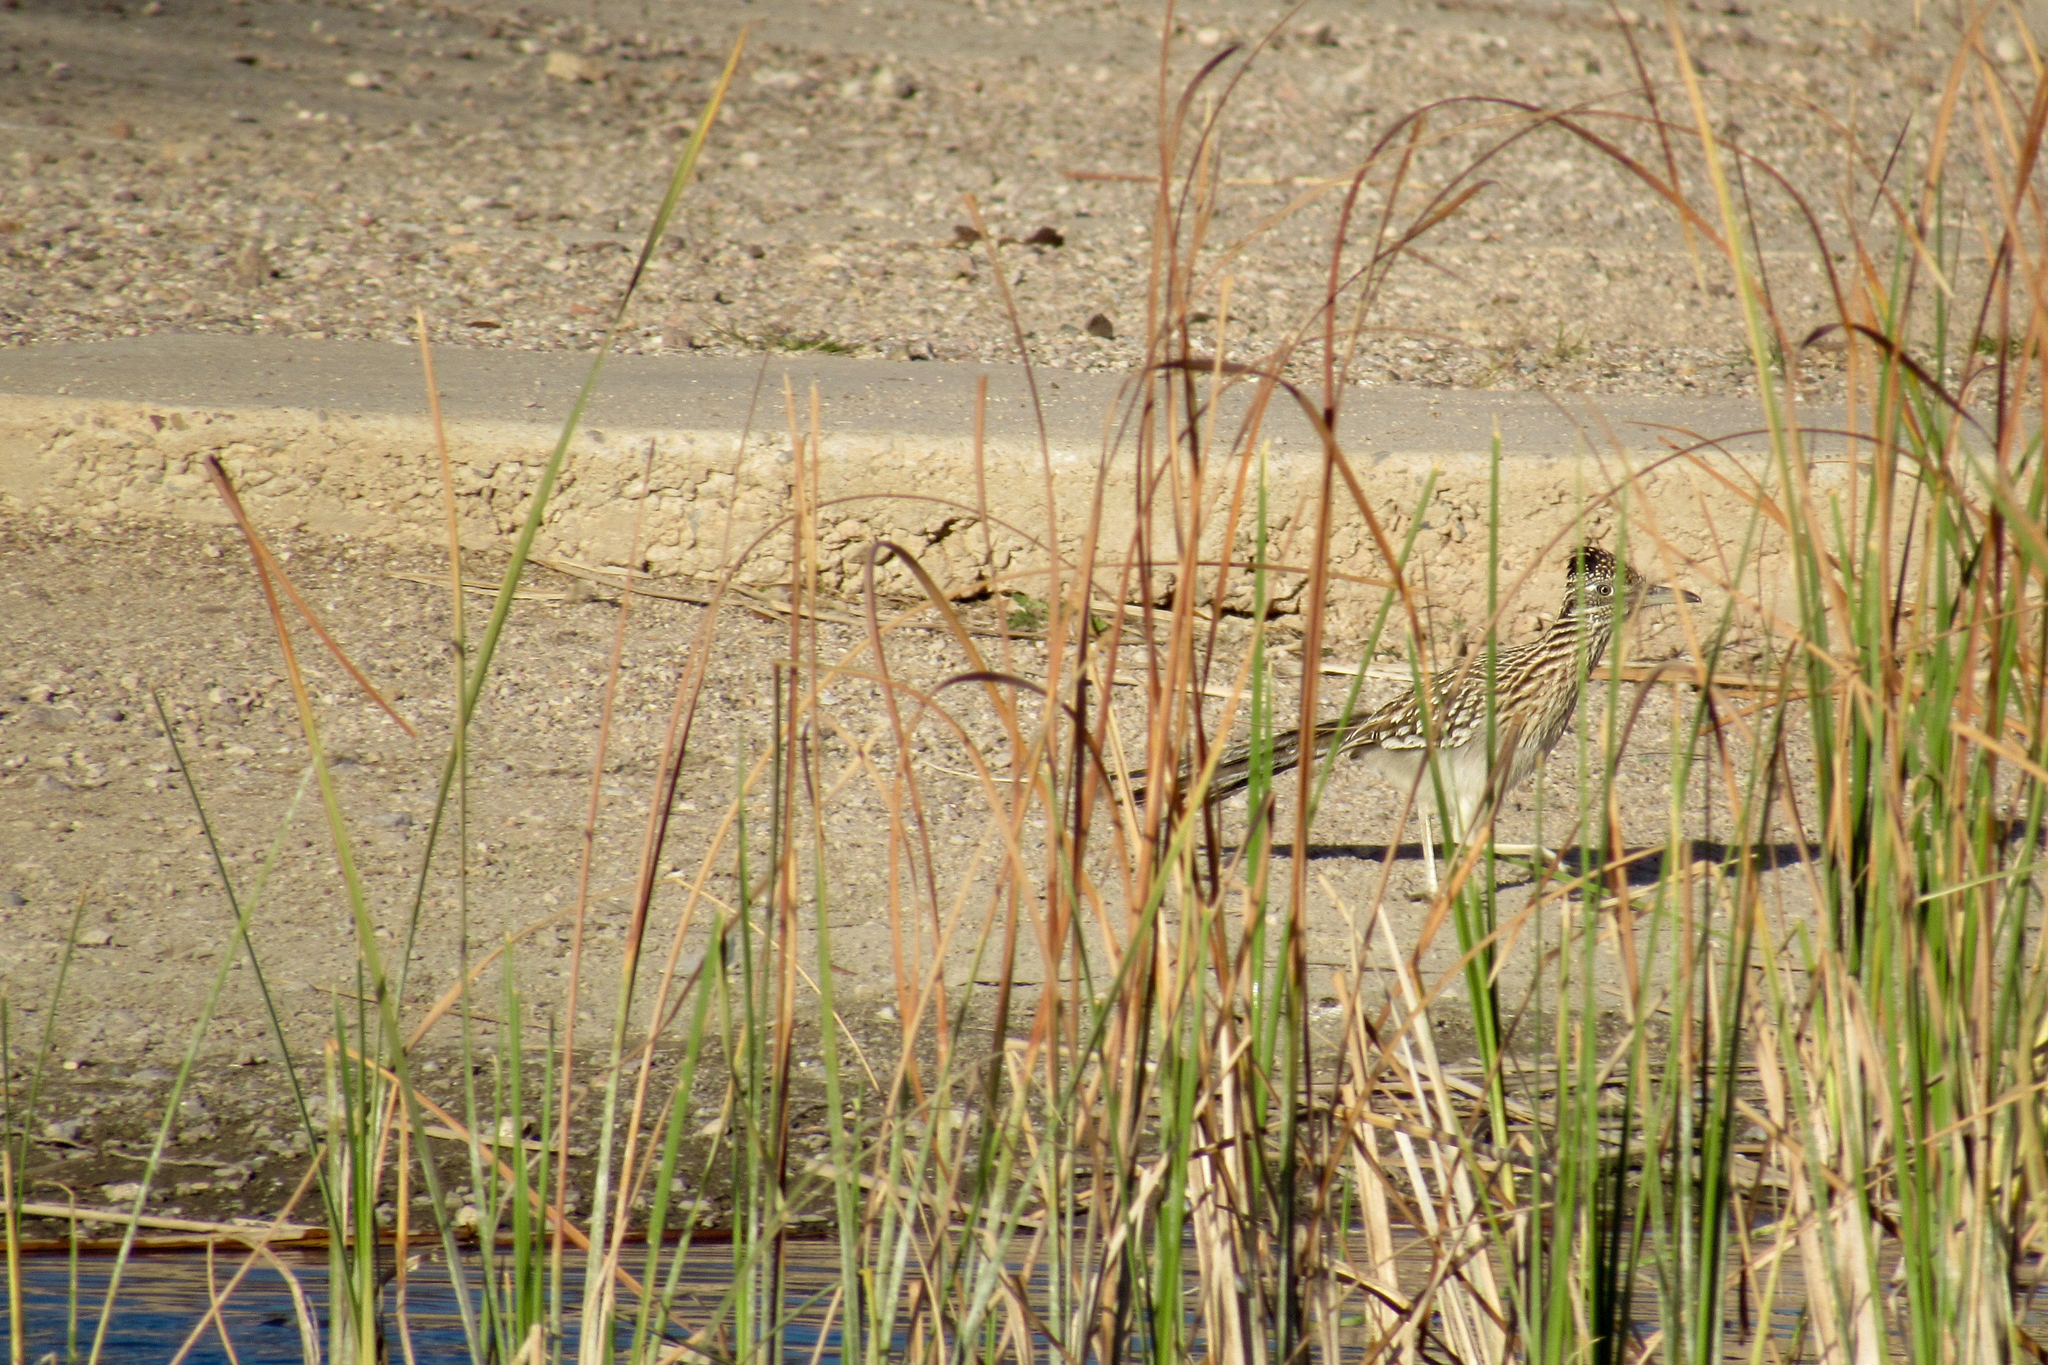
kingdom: Animalia
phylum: Chordata
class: Aves
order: Cuculiformes
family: Cuculidae
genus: Geococcyx
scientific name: Geococcyx californianus
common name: Greater roadrunner
